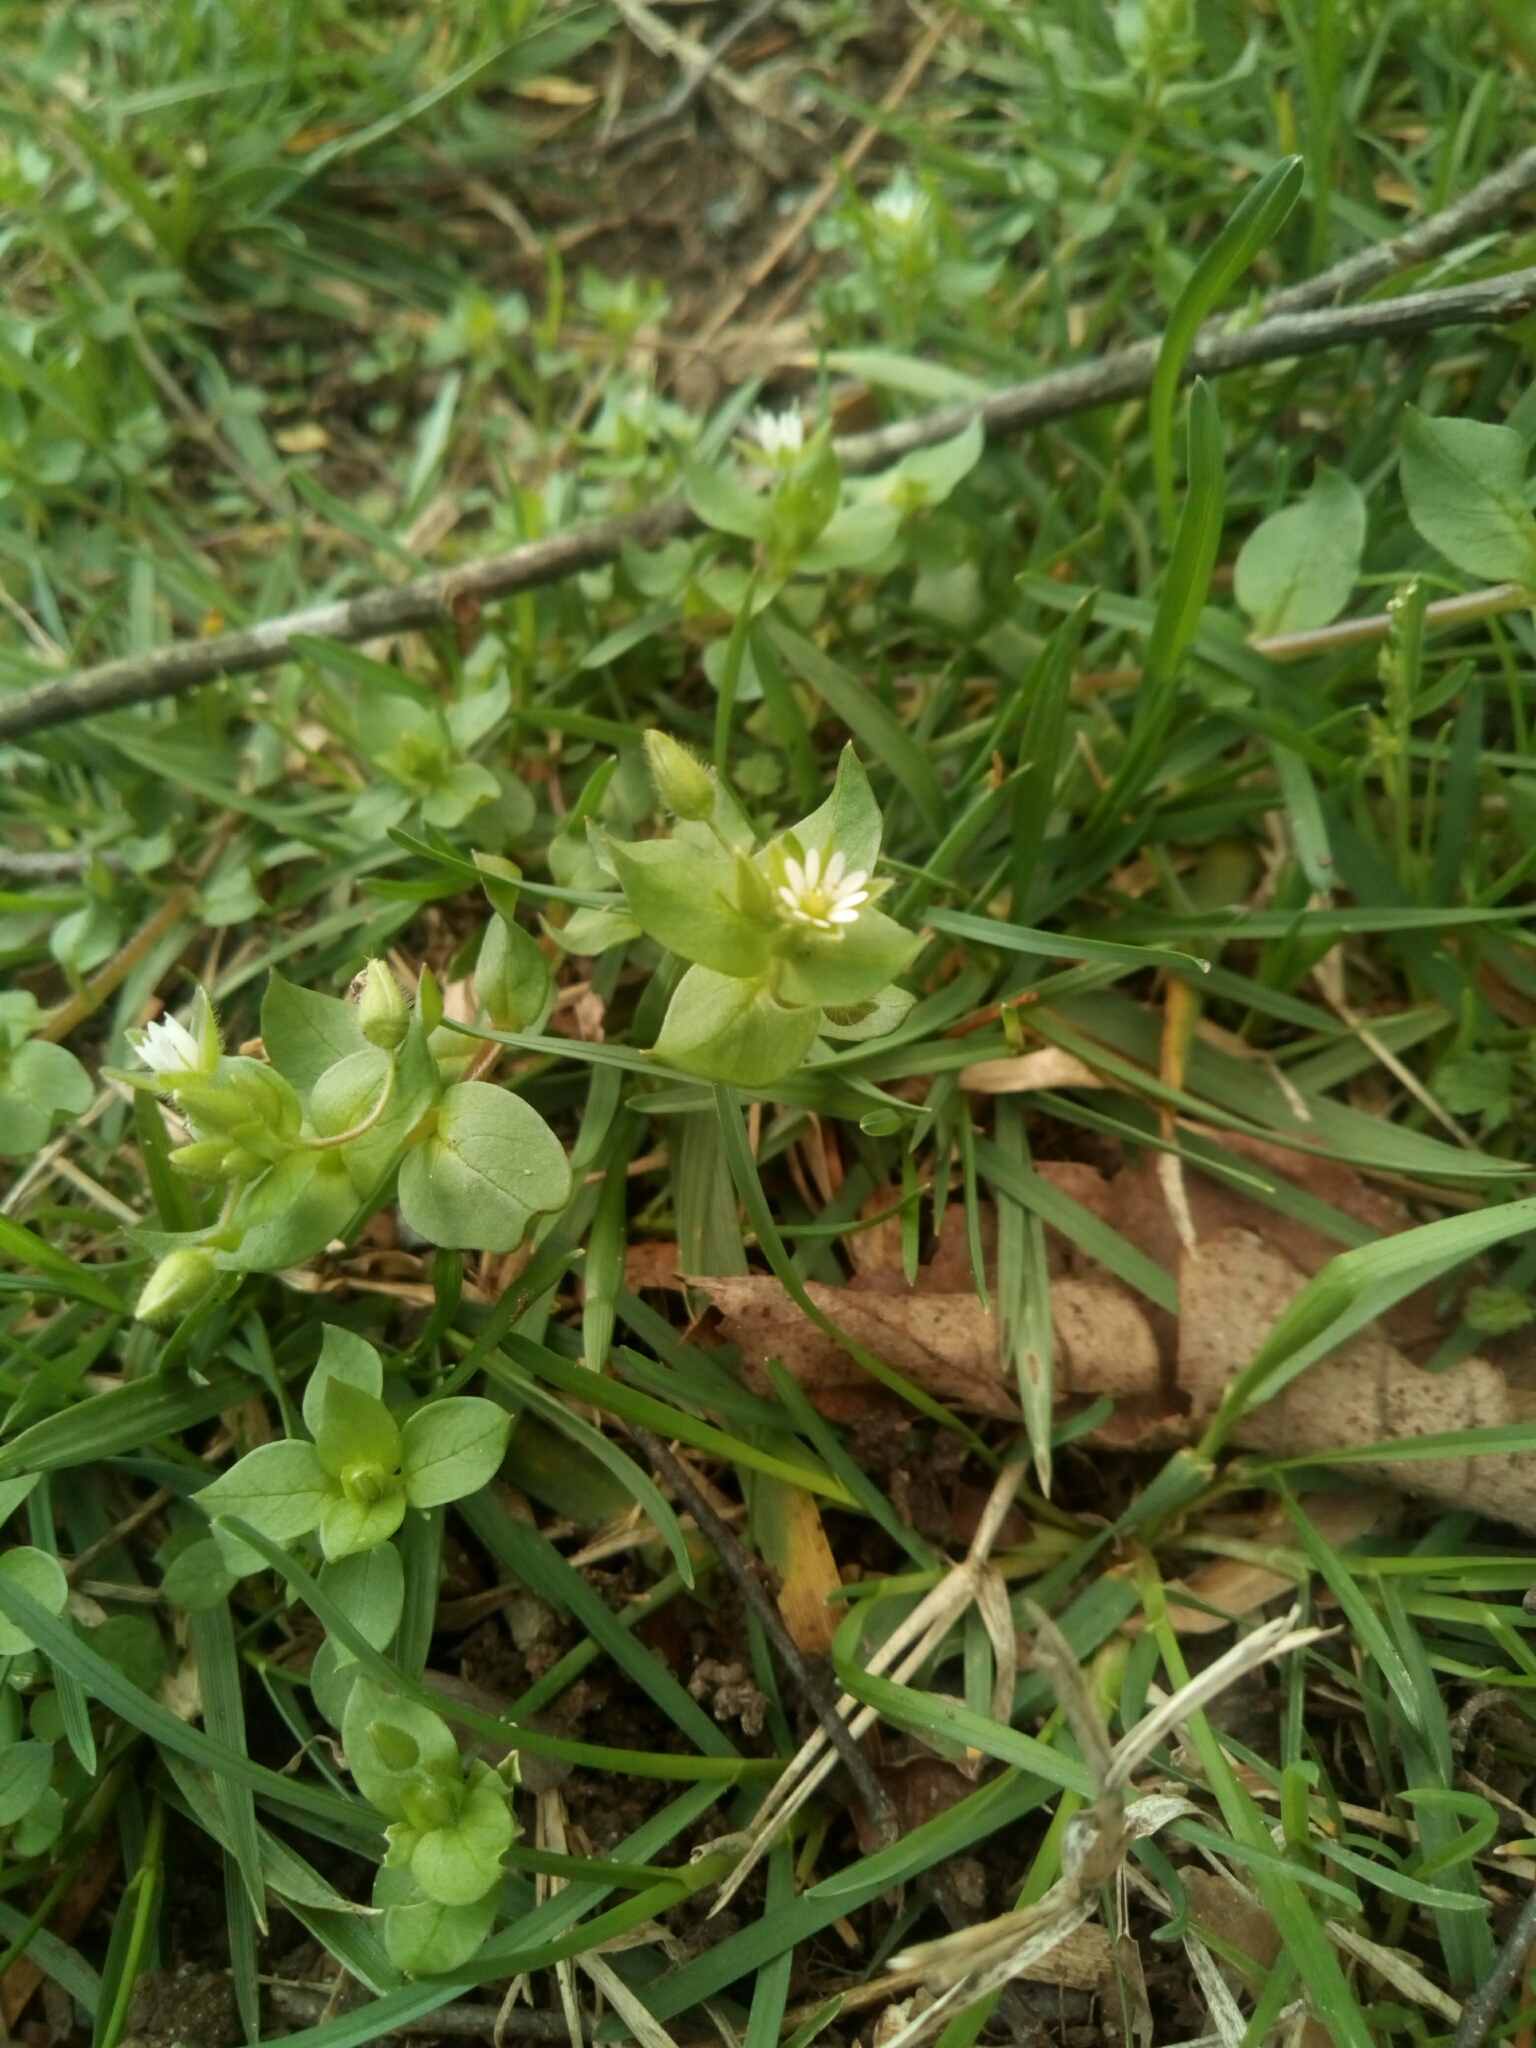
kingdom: Plantae
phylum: Tracheophyta
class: Magnoliopsida
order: Caryophyllales
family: Caryophyllaceae
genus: Stellaria
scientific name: Stellaria media
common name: Common chickweed
